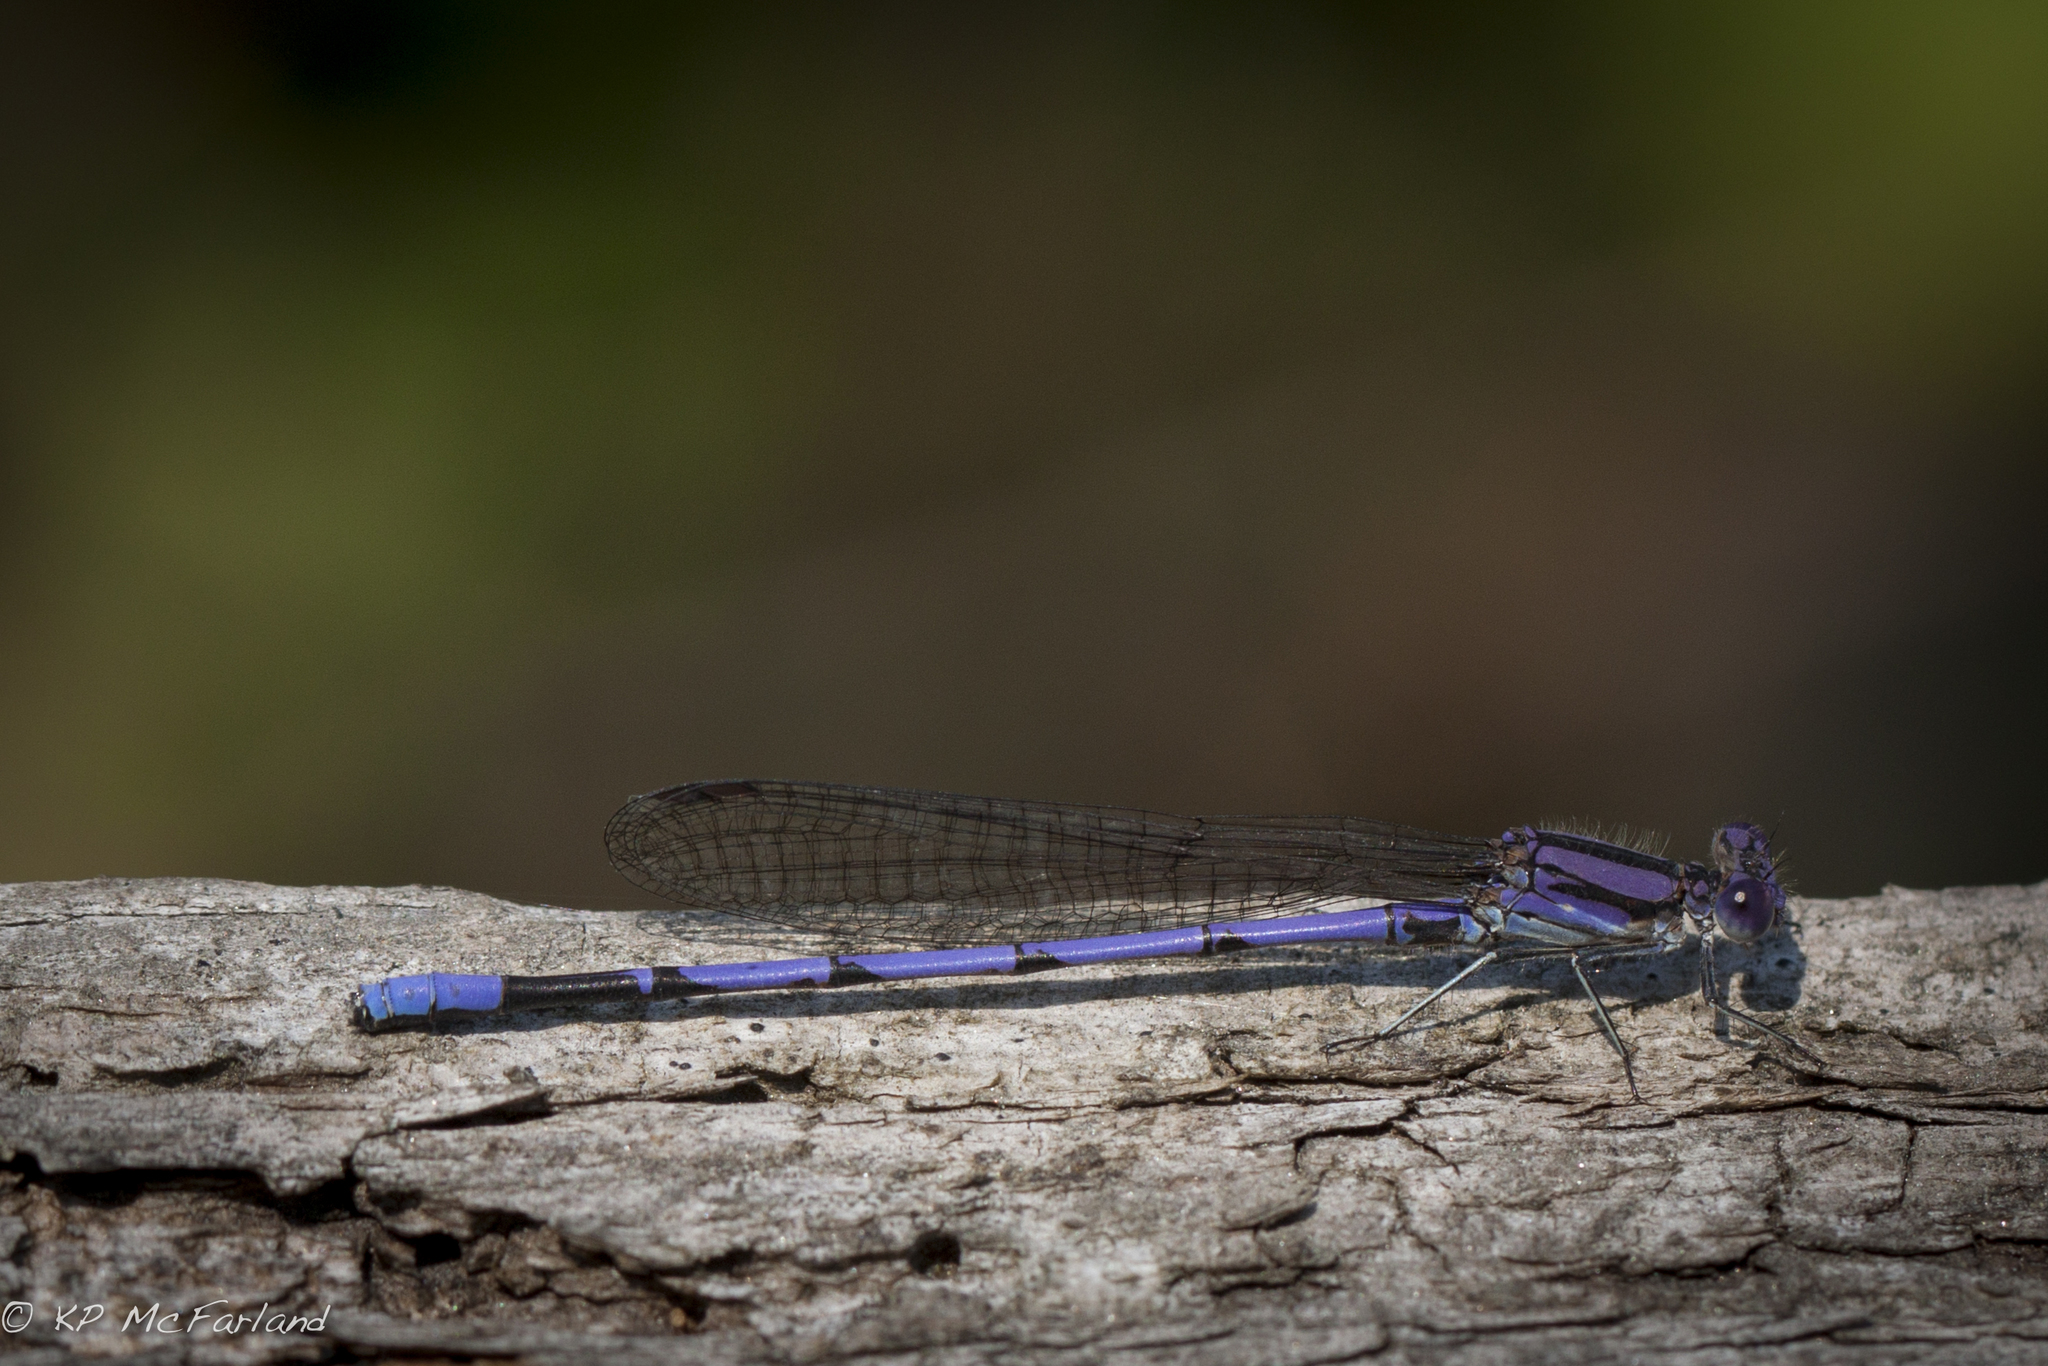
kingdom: Animalia
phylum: Arthropoda
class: Insecta
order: Odonata
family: Coenagrionidae
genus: Argia
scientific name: Argia fumipennis
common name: Variable dancer
